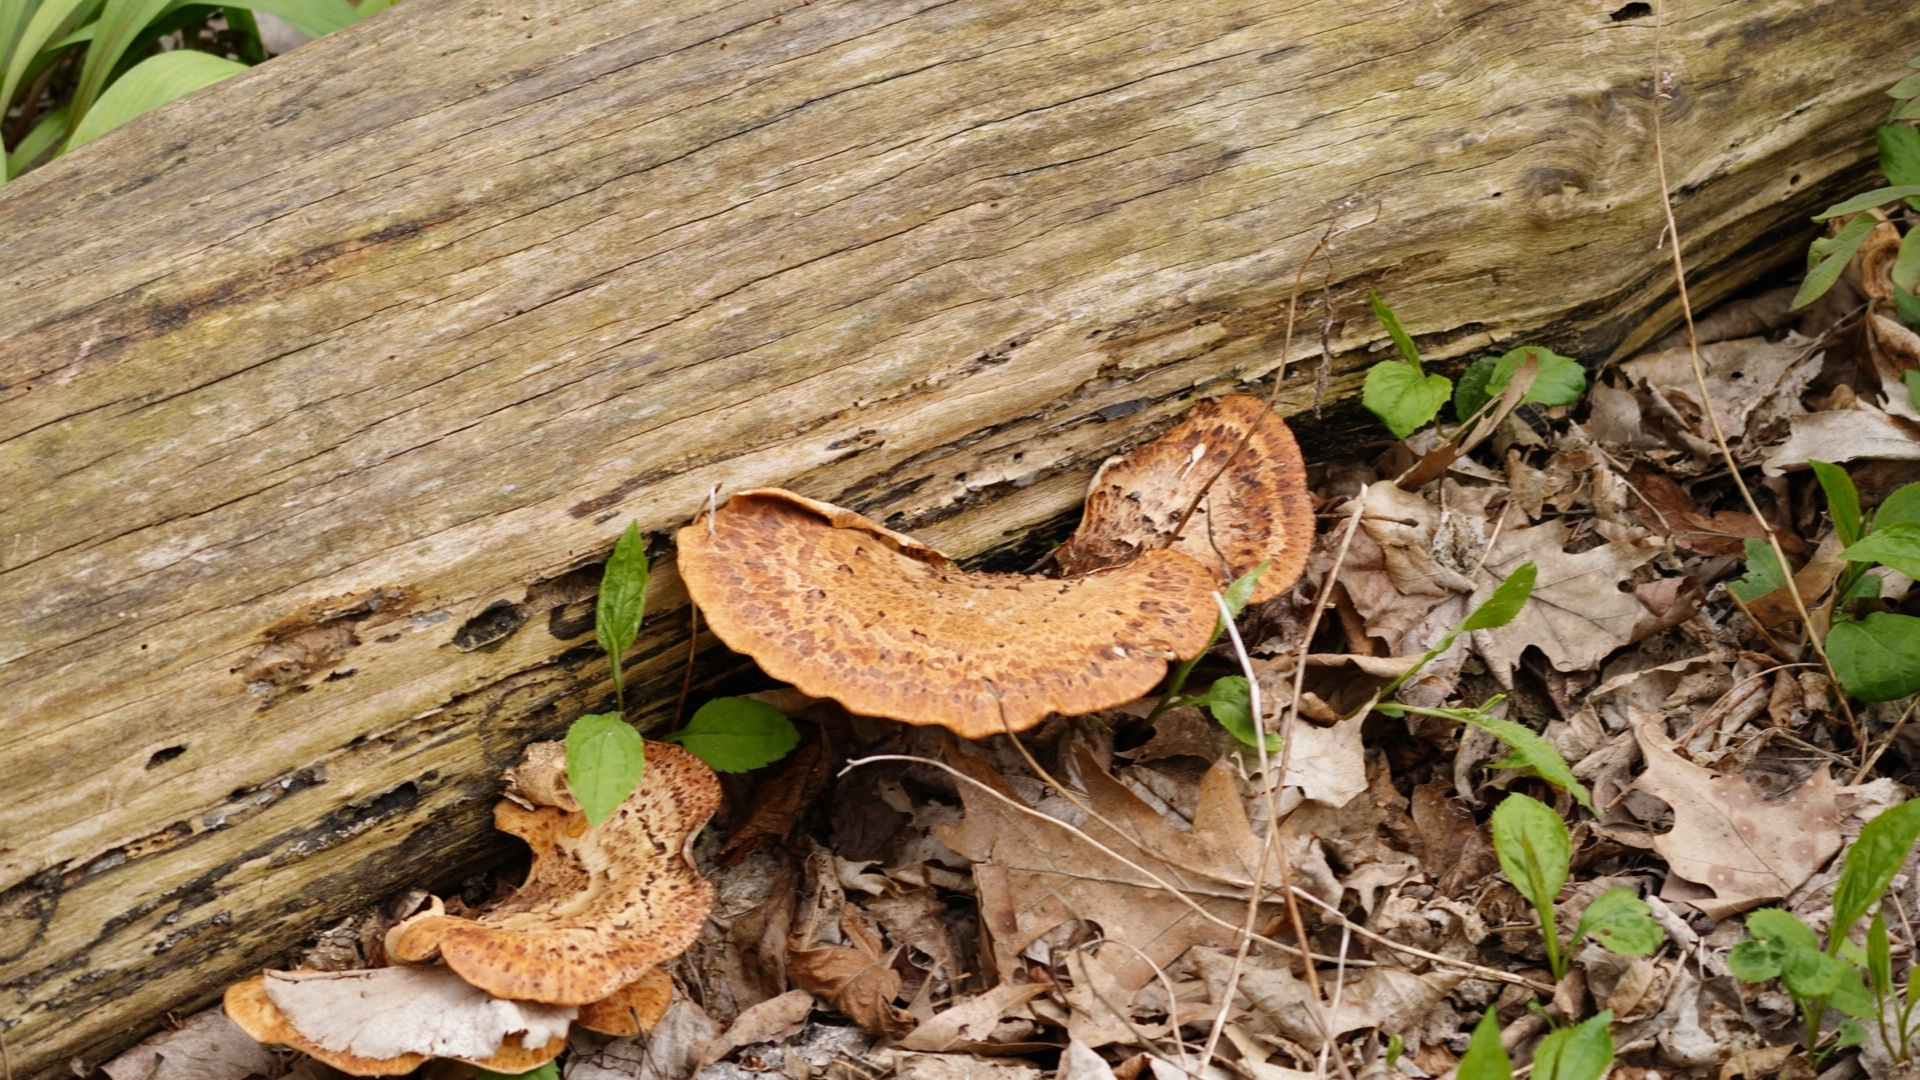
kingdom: Fungi
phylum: Basidiomycota
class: Agaricomycetes
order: Polyporales
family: Polyporaceae
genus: Cerioporus
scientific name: Cerioporus squamosus
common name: Dryad's saddle
